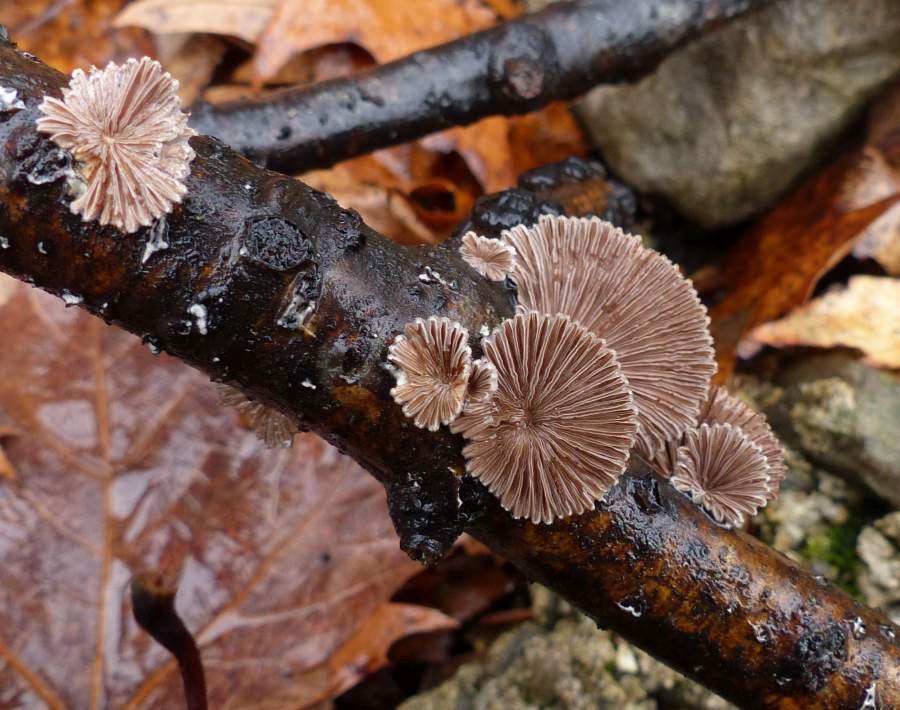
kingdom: Fungi
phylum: Basidiomycota
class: Agaricomycetes
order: Agaricales
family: Schizophyllaceae
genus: Schizophyllum
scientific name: Schizophyllum commune
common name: Common porecrust
